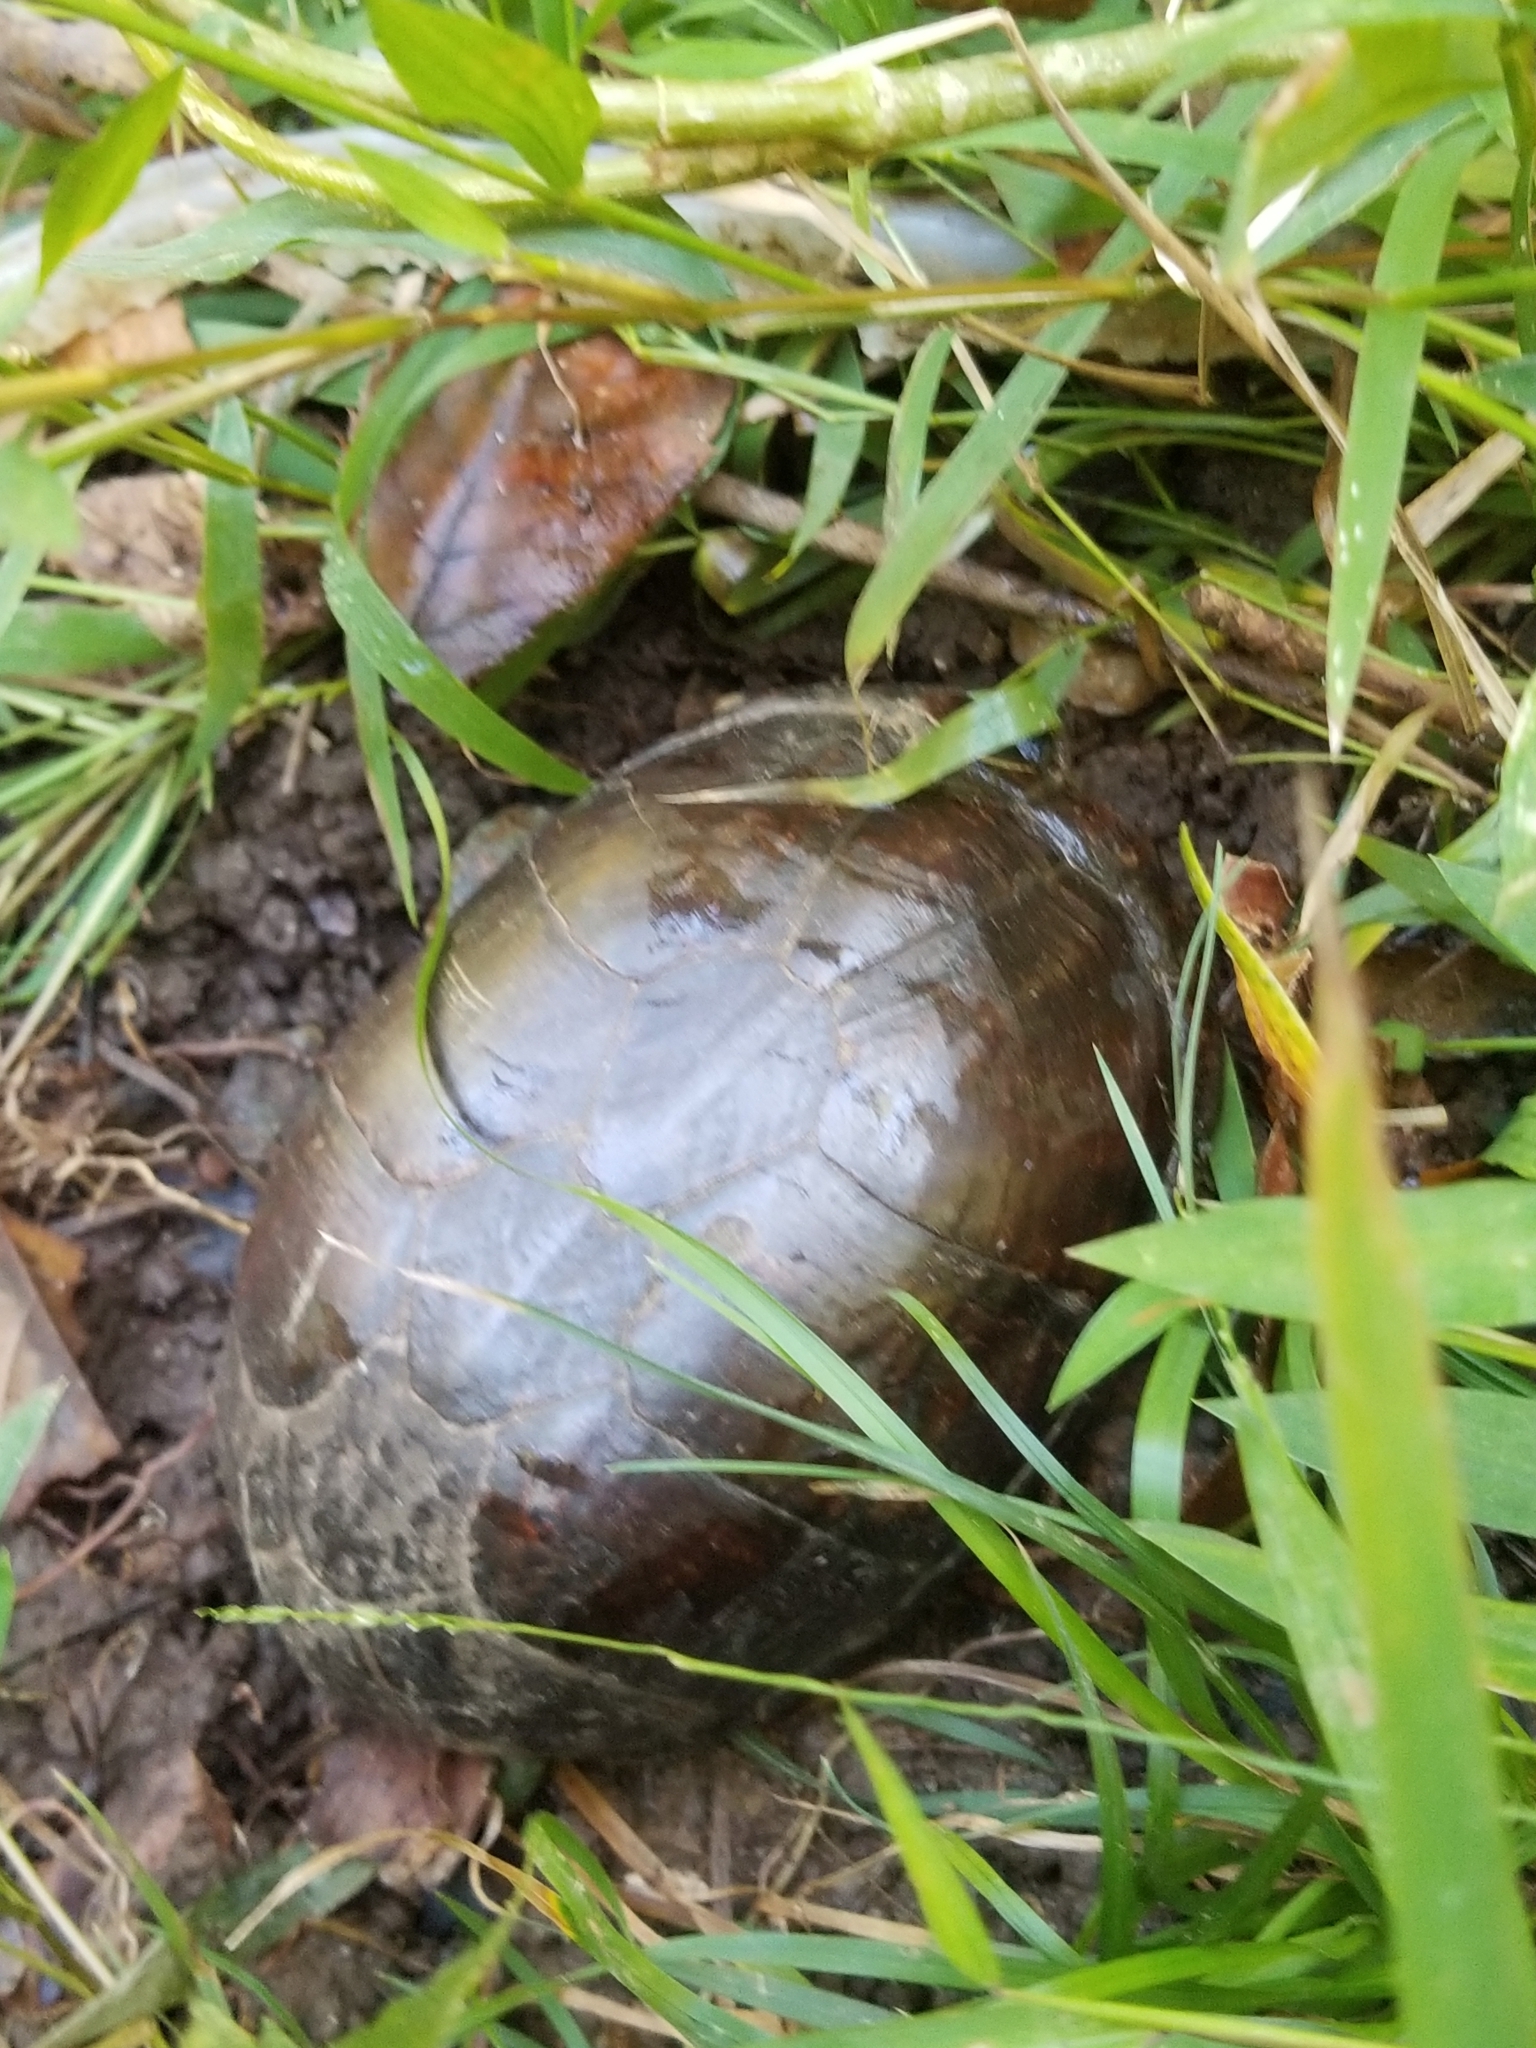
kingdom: Animalia
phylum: Chordata
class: Testudines
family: Kinosternidae
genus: Kinosternon
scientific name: Kinosternon subrubrum
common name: Eastern mud turtle
